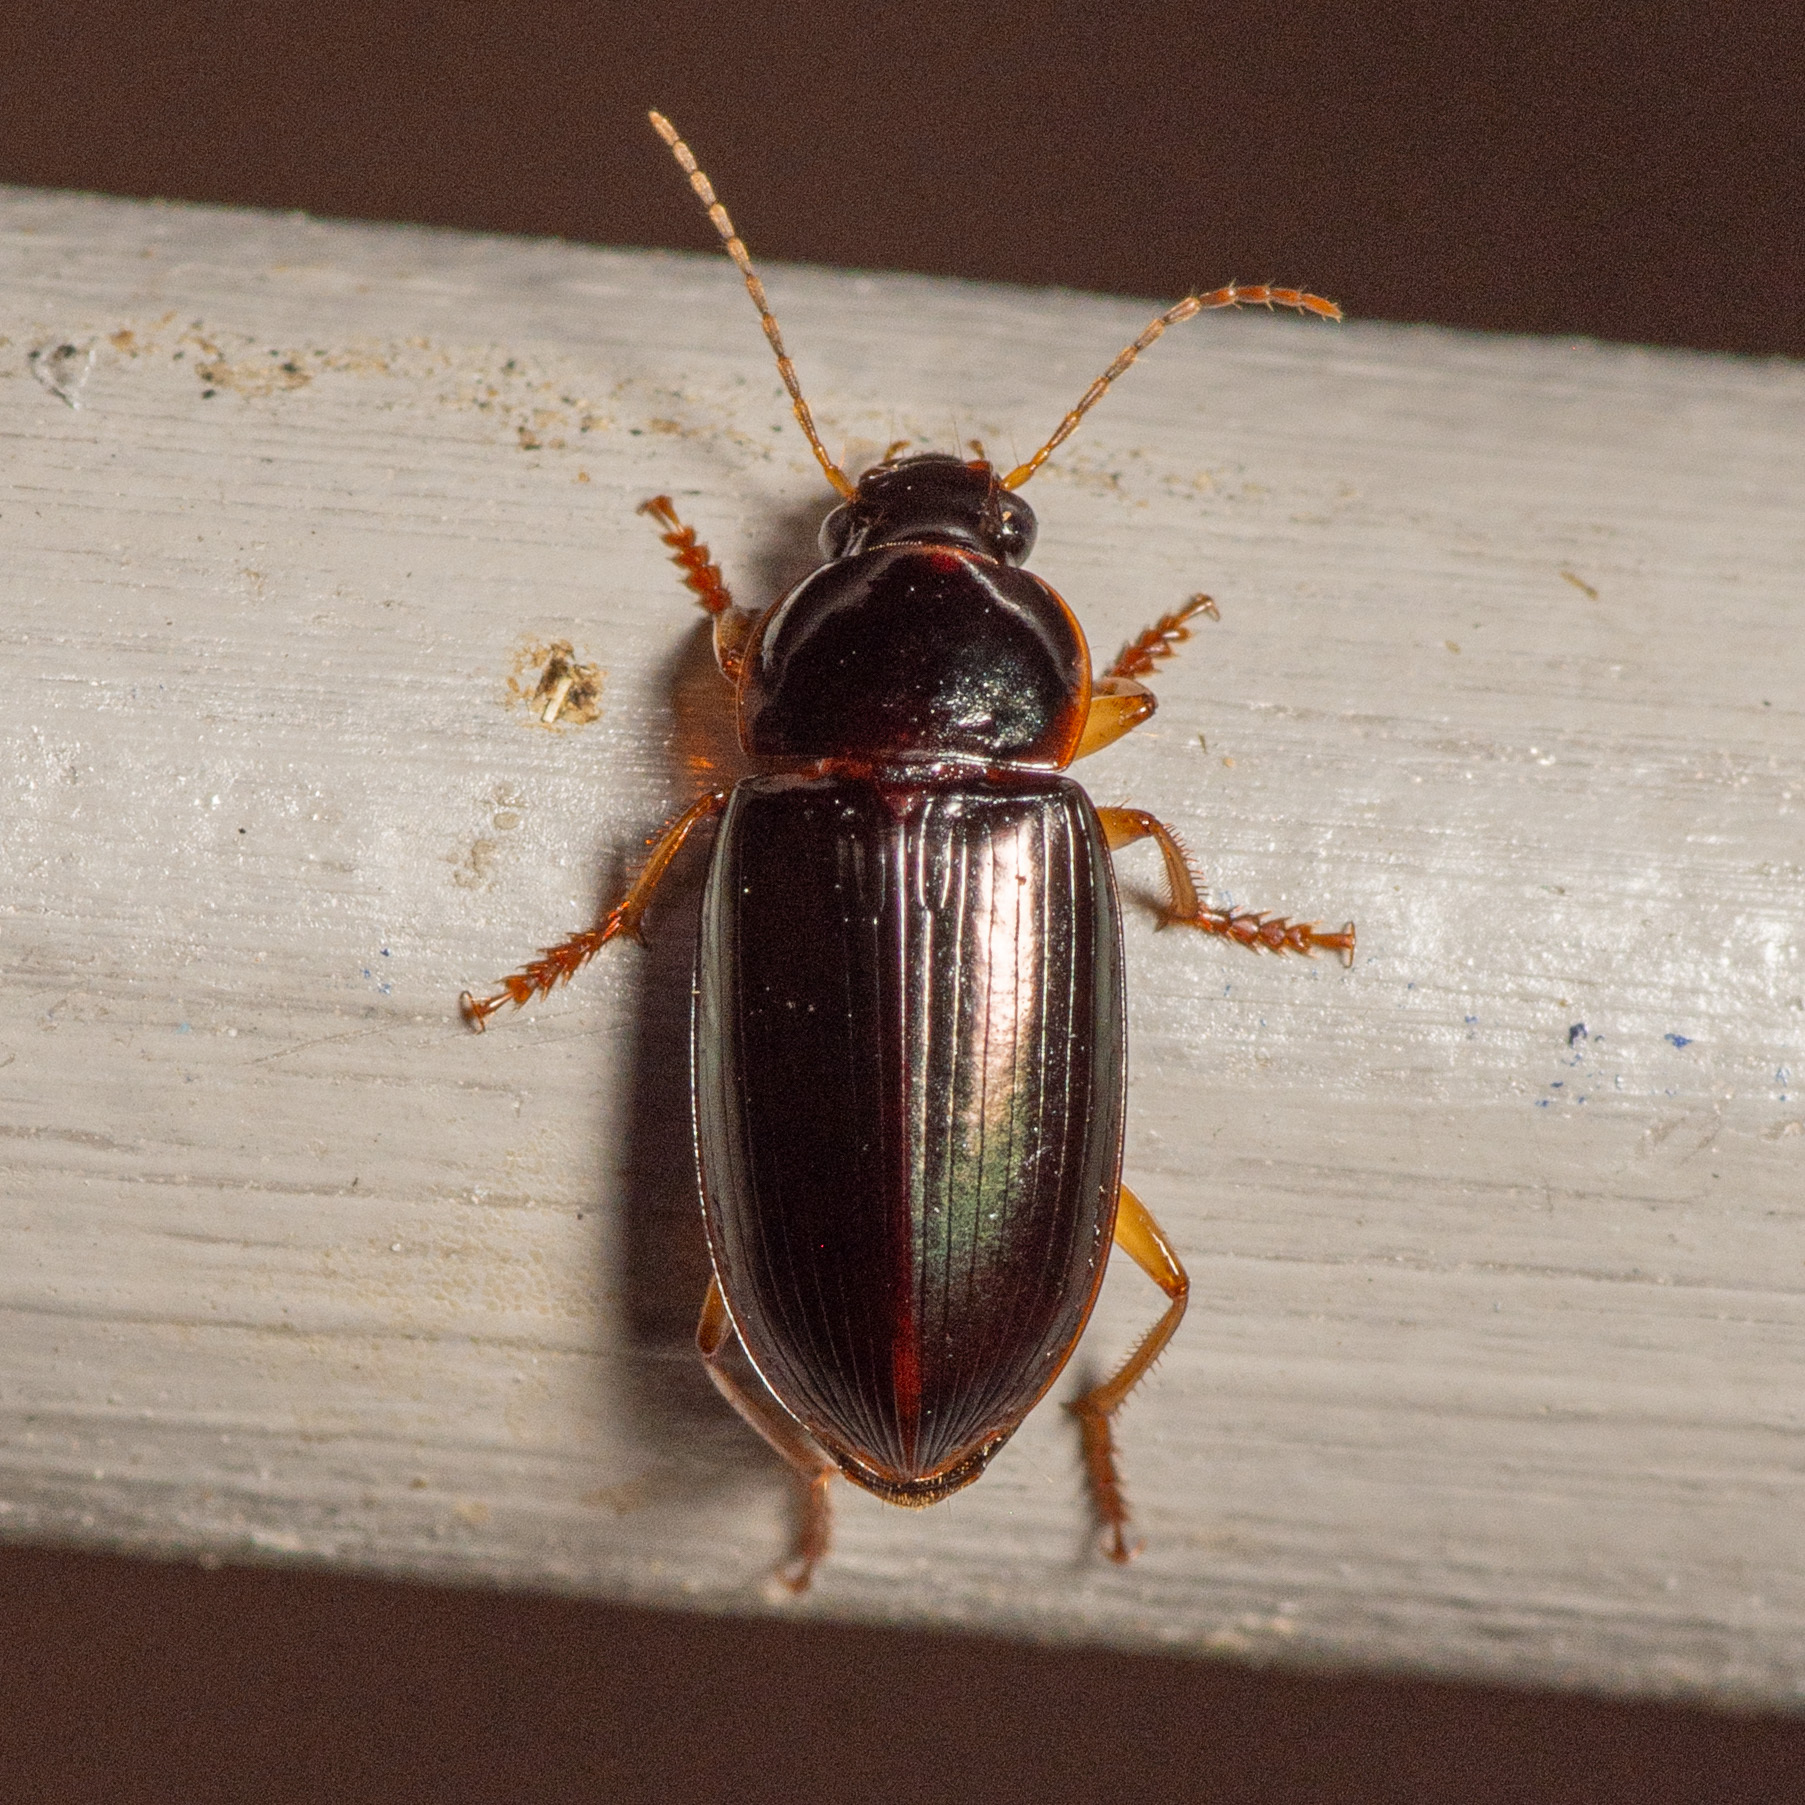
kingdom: Animalia
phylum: Arthropoda
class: Insecta
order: Coleoptera
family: Carabidae
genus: Notiobia
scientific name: Notiobia terminata
